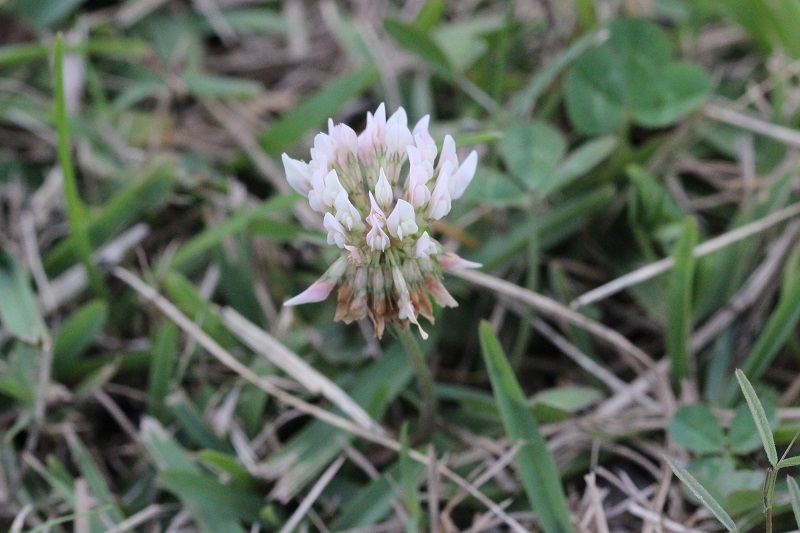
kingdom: Plantae
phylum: Tracheophyta
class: Magnoliopsida
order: Fabales
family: Fabaceae
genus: Trifolium
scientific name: Trifolium repens
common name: White clover
